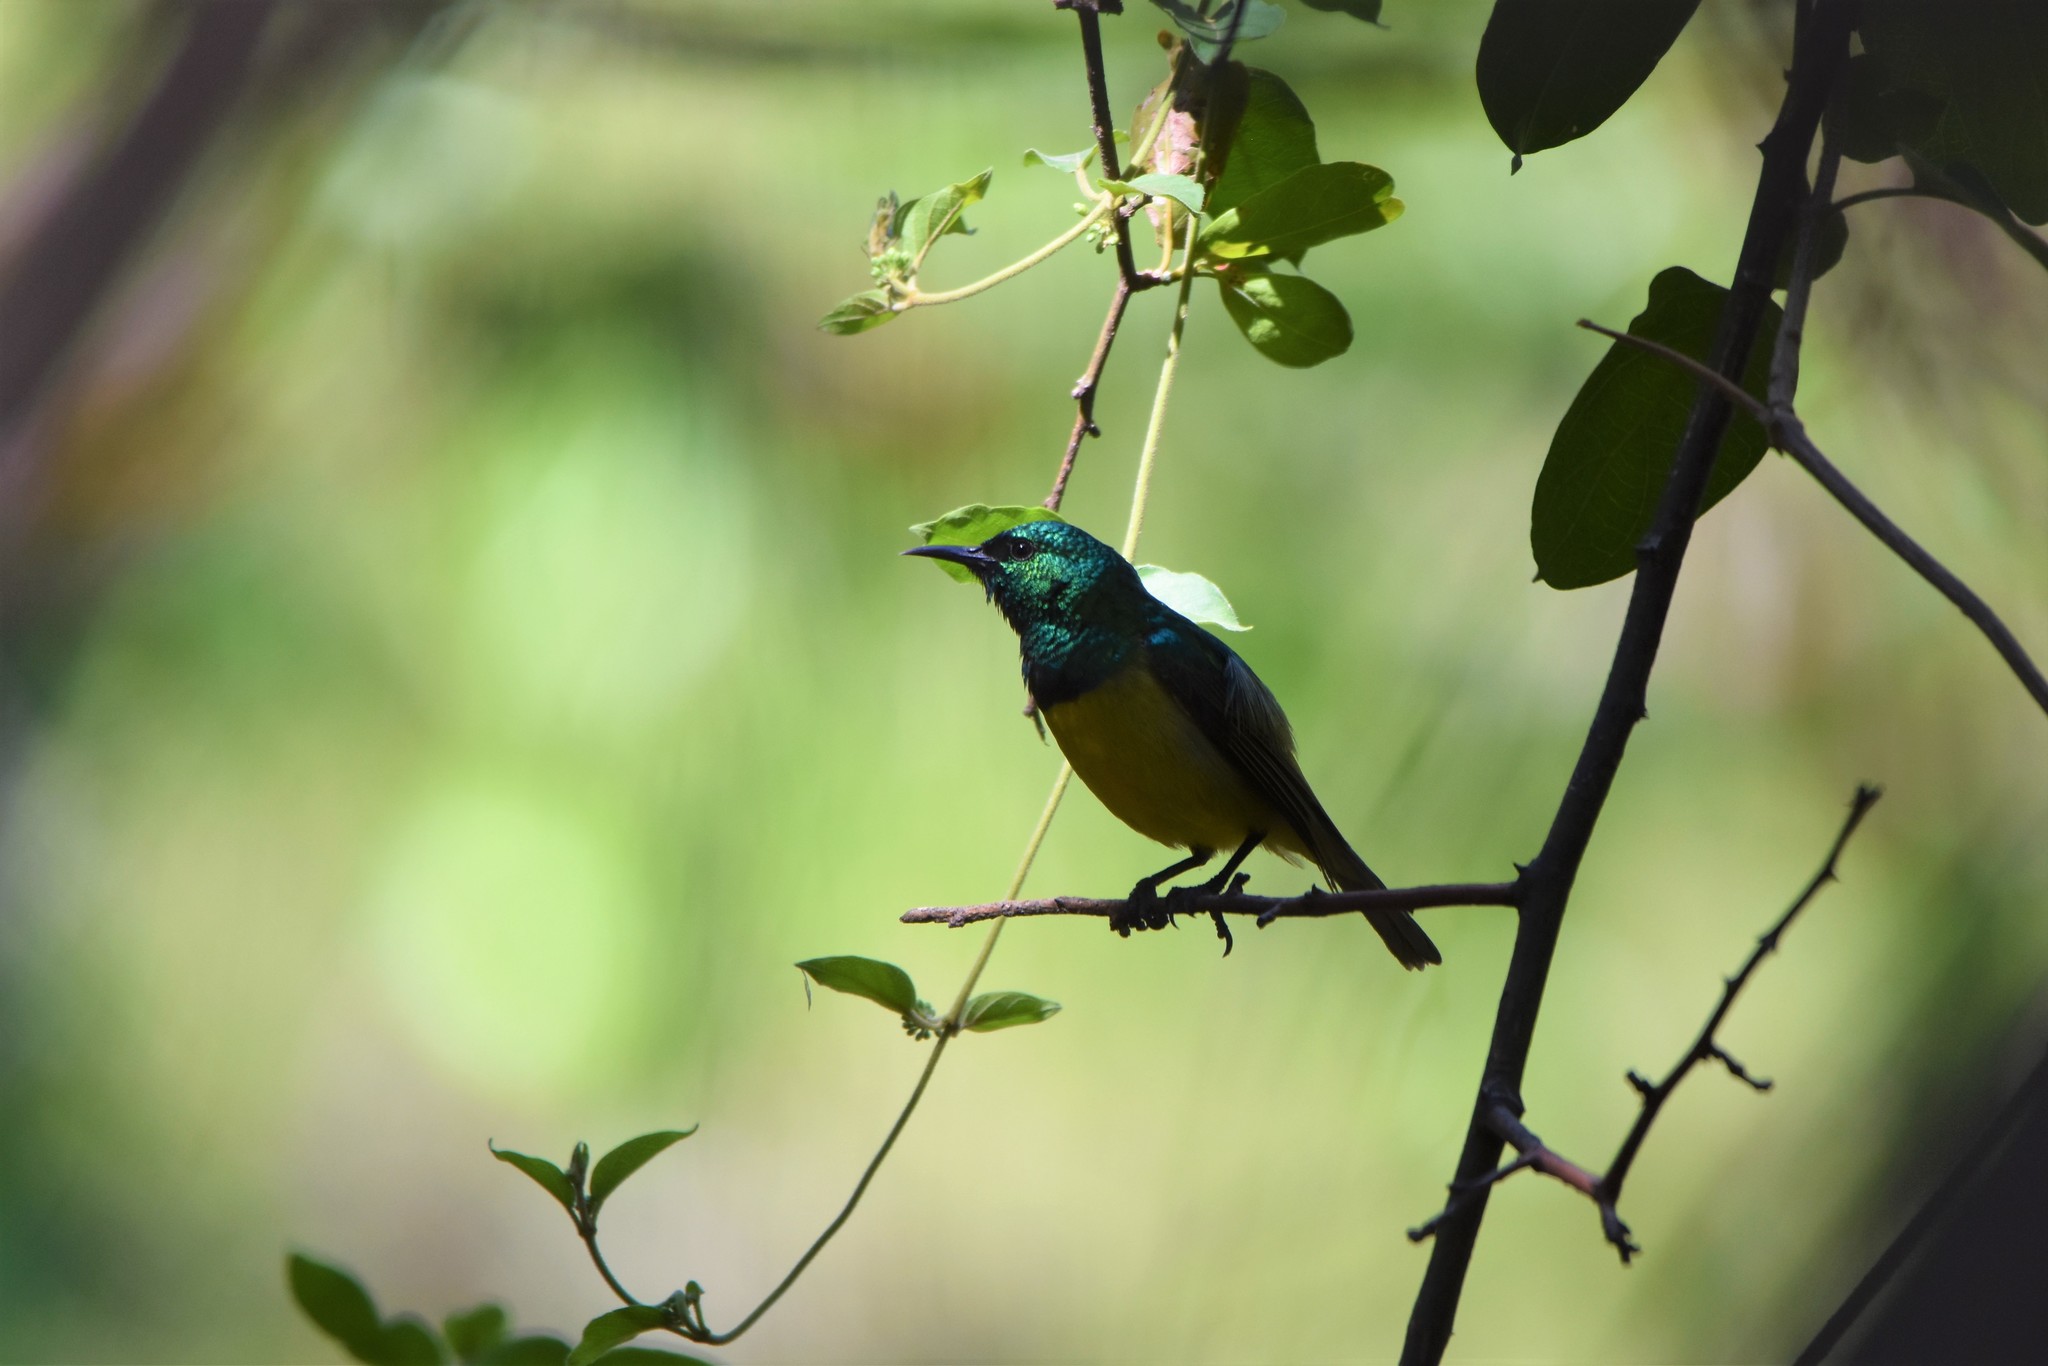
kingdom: Animalia
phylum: Chordata
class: Aves
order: Passeriformes
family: Nectariniidae
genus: Hedydipna
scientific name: Hedydipna collaris
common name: Collared sunbird
